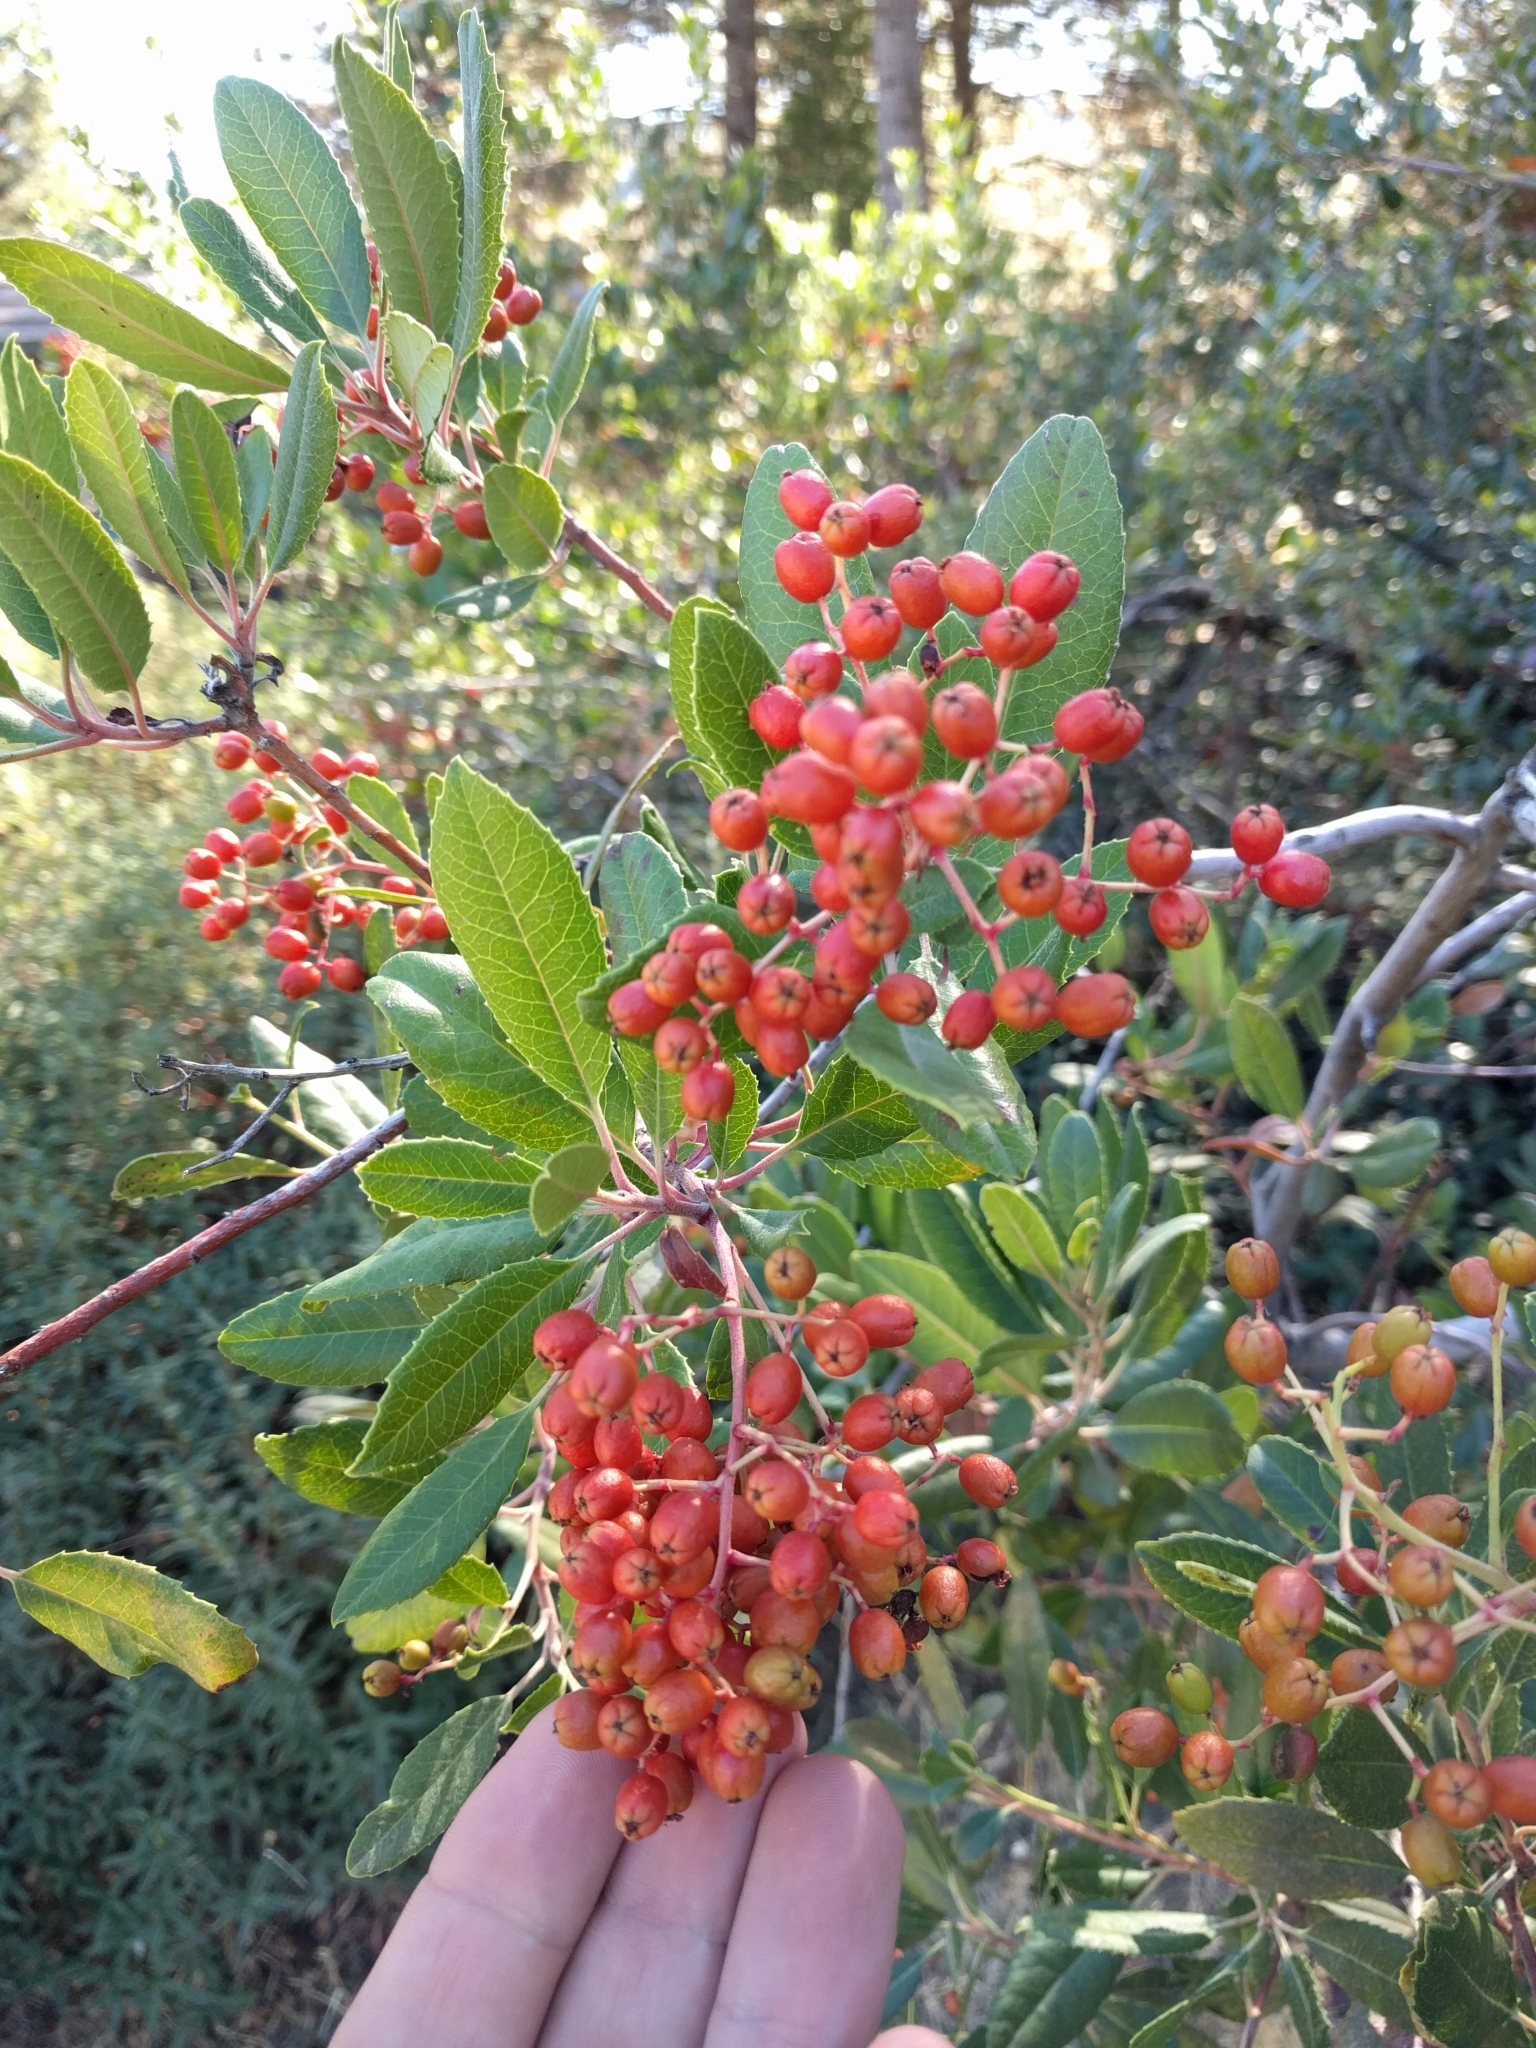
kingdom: Plantae
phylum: Tracheophyta
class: Magnoliopsida
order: Rosales
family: Rosaceae
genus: Heteromeles
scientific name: Heteromeles arbutifolia
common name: California-holly
